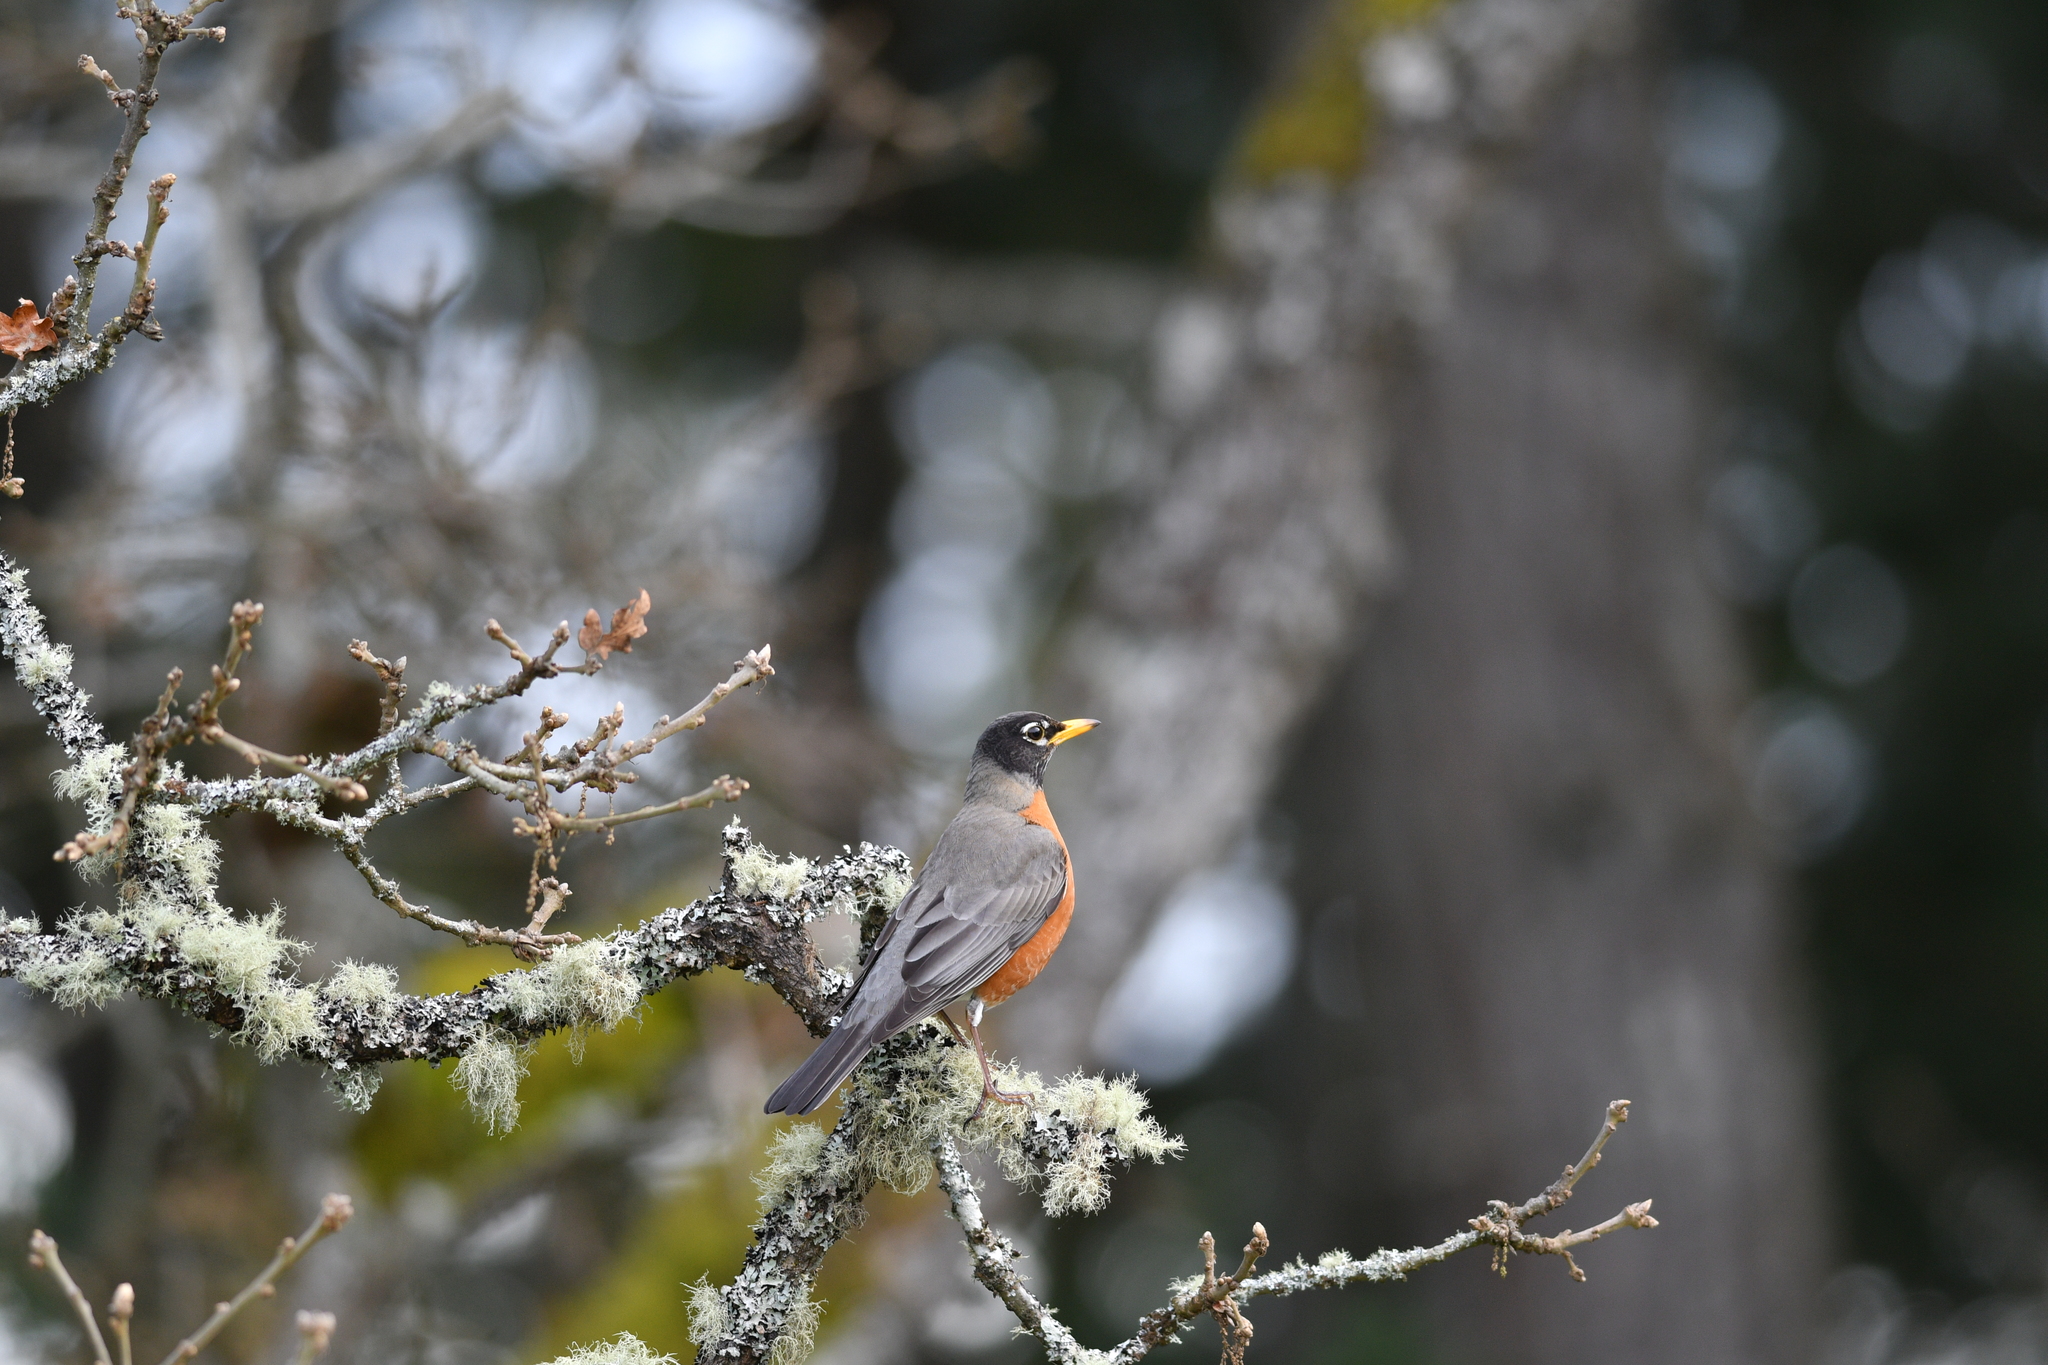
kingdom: Animalia
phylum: Chordata
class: Aves
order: Passeriformes
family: Turdidae
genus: Turdus
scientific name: Turdus migratorius
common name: American robin
